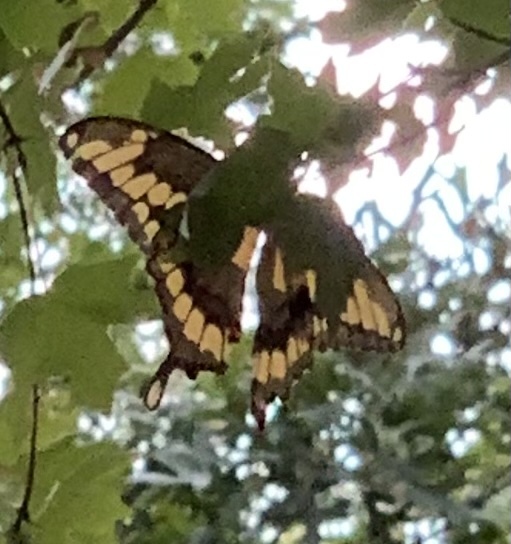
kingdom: Animalia
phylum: Arthropoda
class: Insecta
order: Lepidoptera
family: Papilionidae
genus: Papilio
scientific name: Papilio cresphontes
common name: Giant swallowtail
